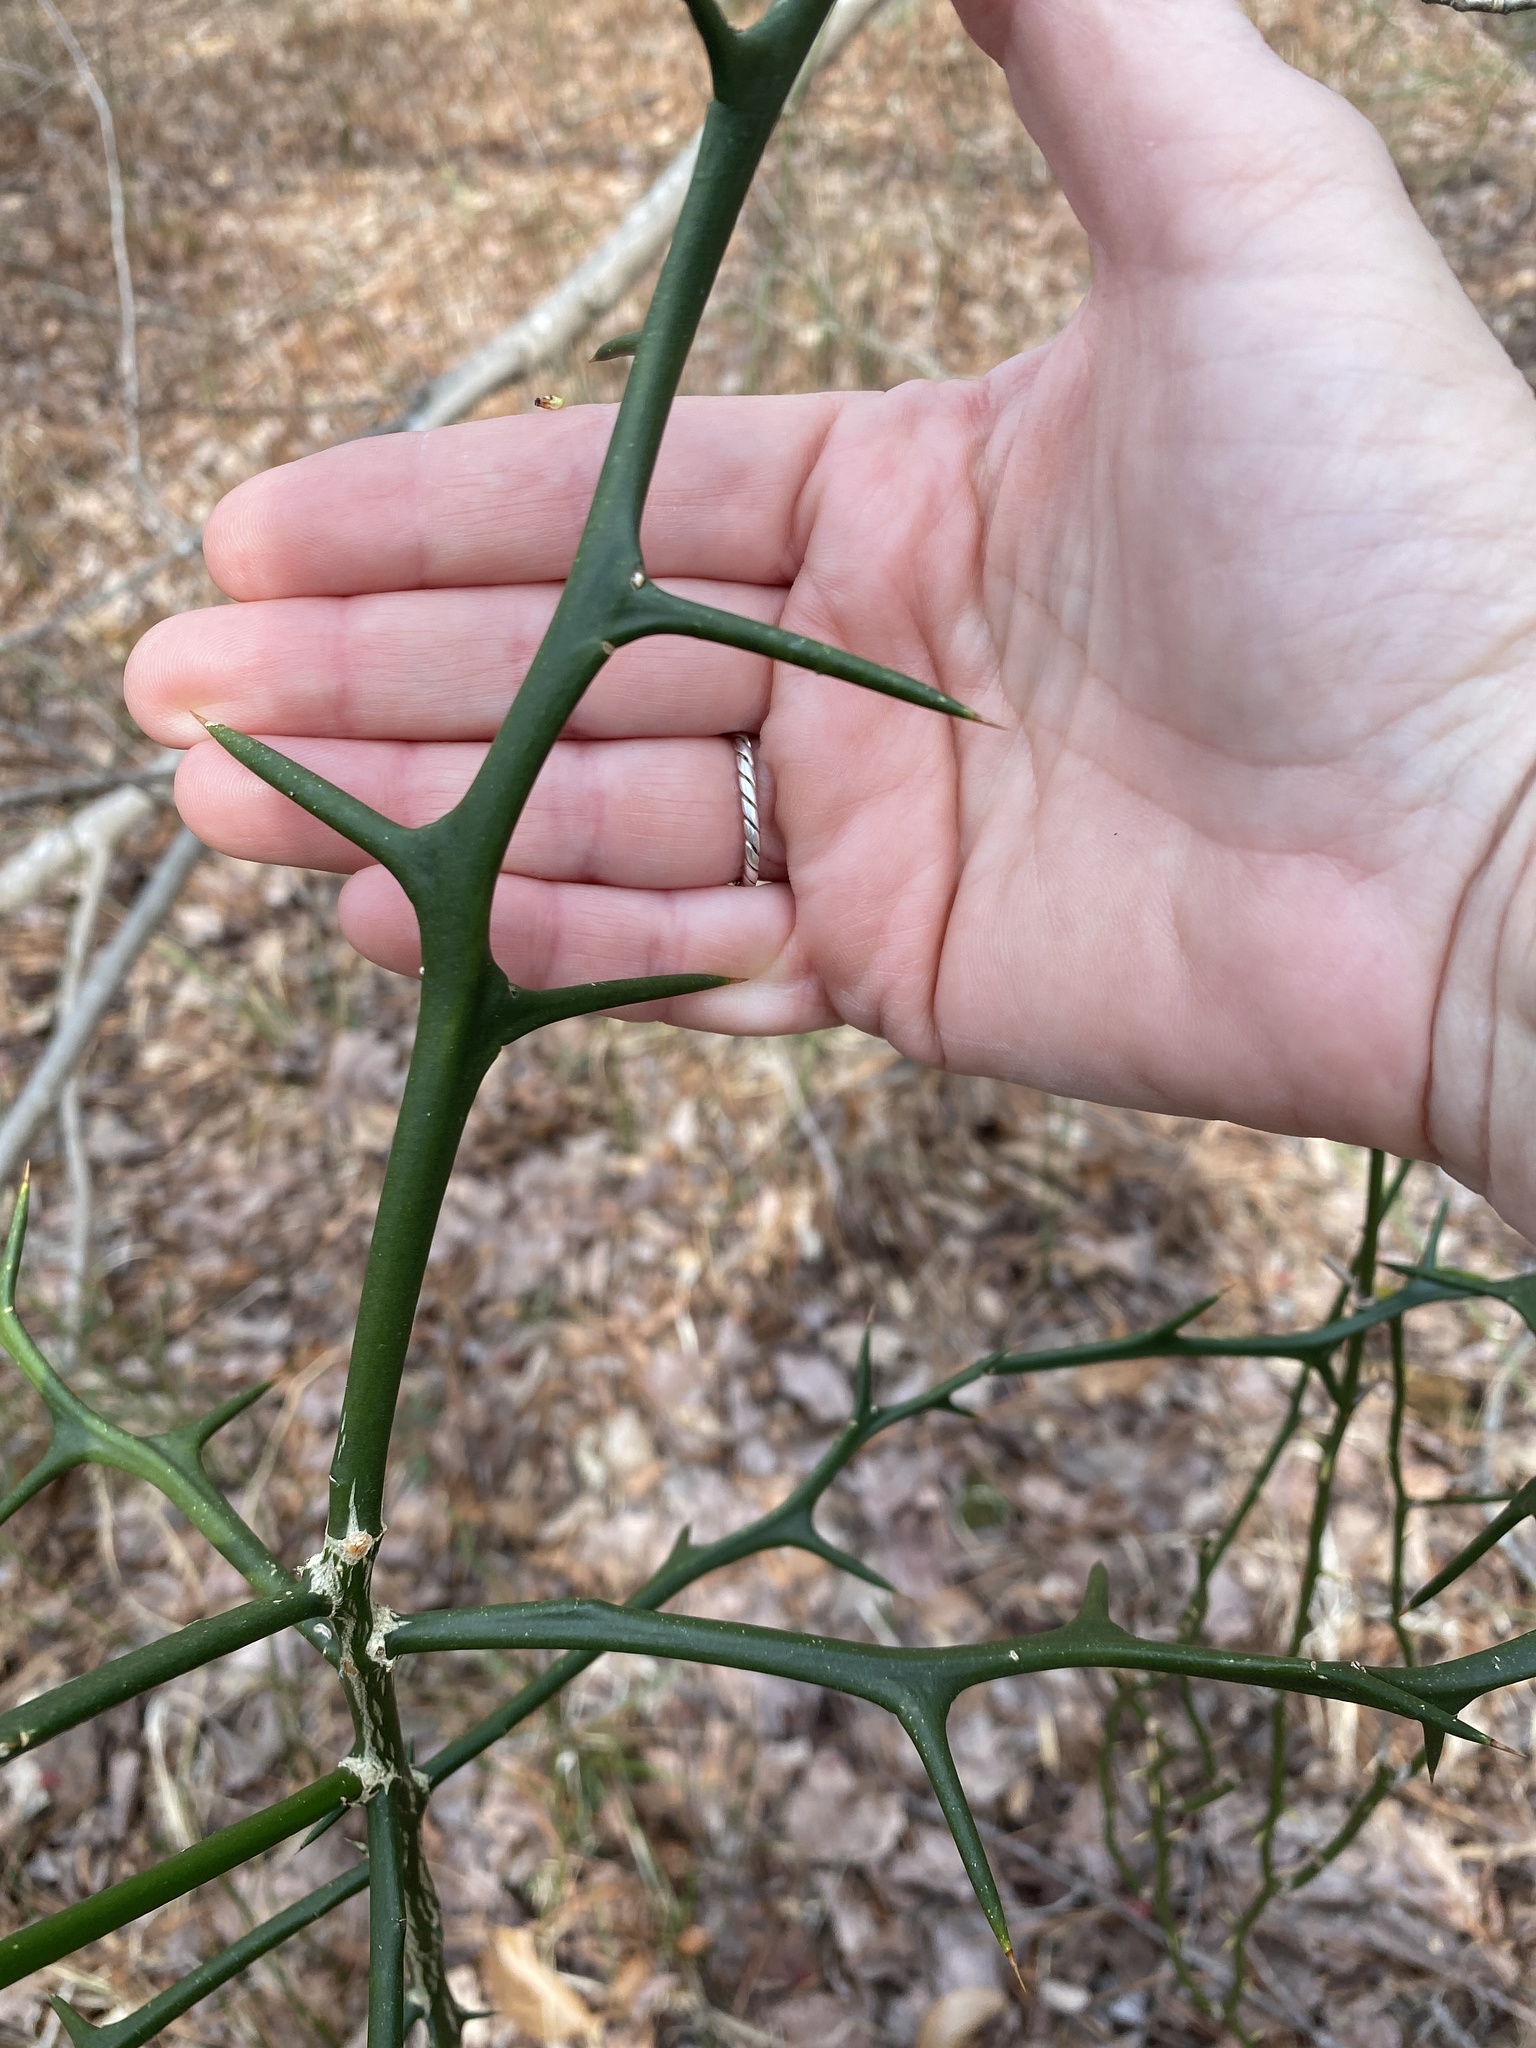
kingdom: Plantae
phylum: Tracheophyta
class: Magnoliopsida
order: Sapindales
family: Rutaceae
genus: Citrus
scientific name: Citrus trifoliata
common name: Japanese bitter-orange
